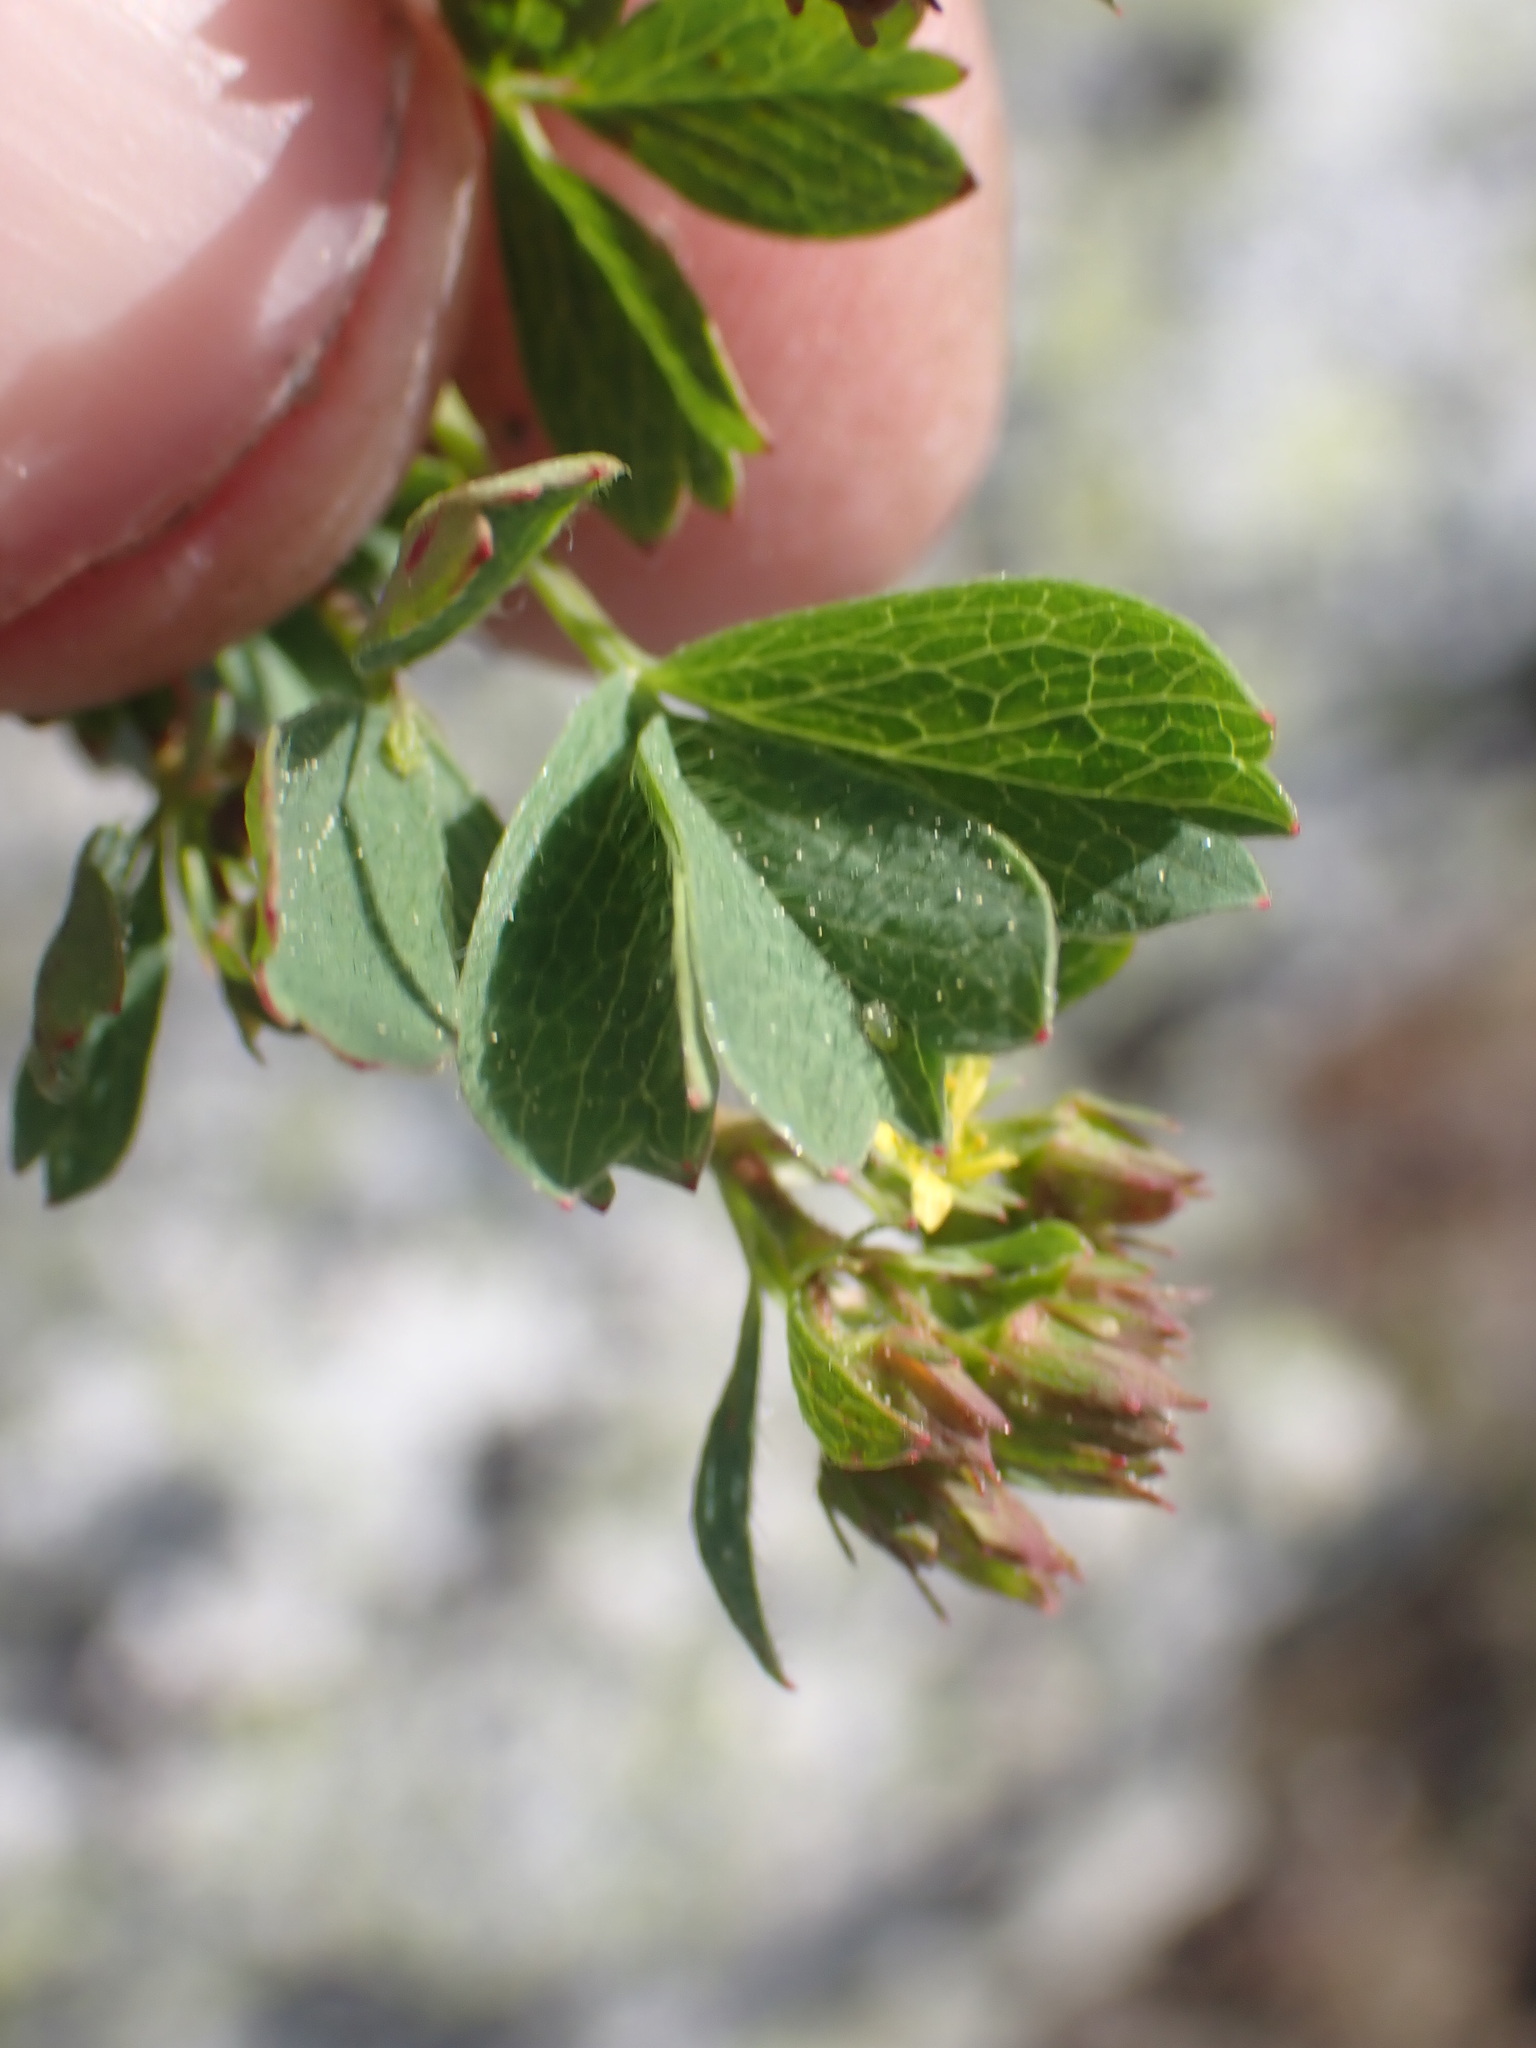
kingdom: Plantae
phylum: Tracheophyta
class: Magnoliopsida
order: Rosales
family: Rosaceae
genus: Sibbaldia
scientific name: Sibbaldia procumbens
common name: Creeping sibbaldia
